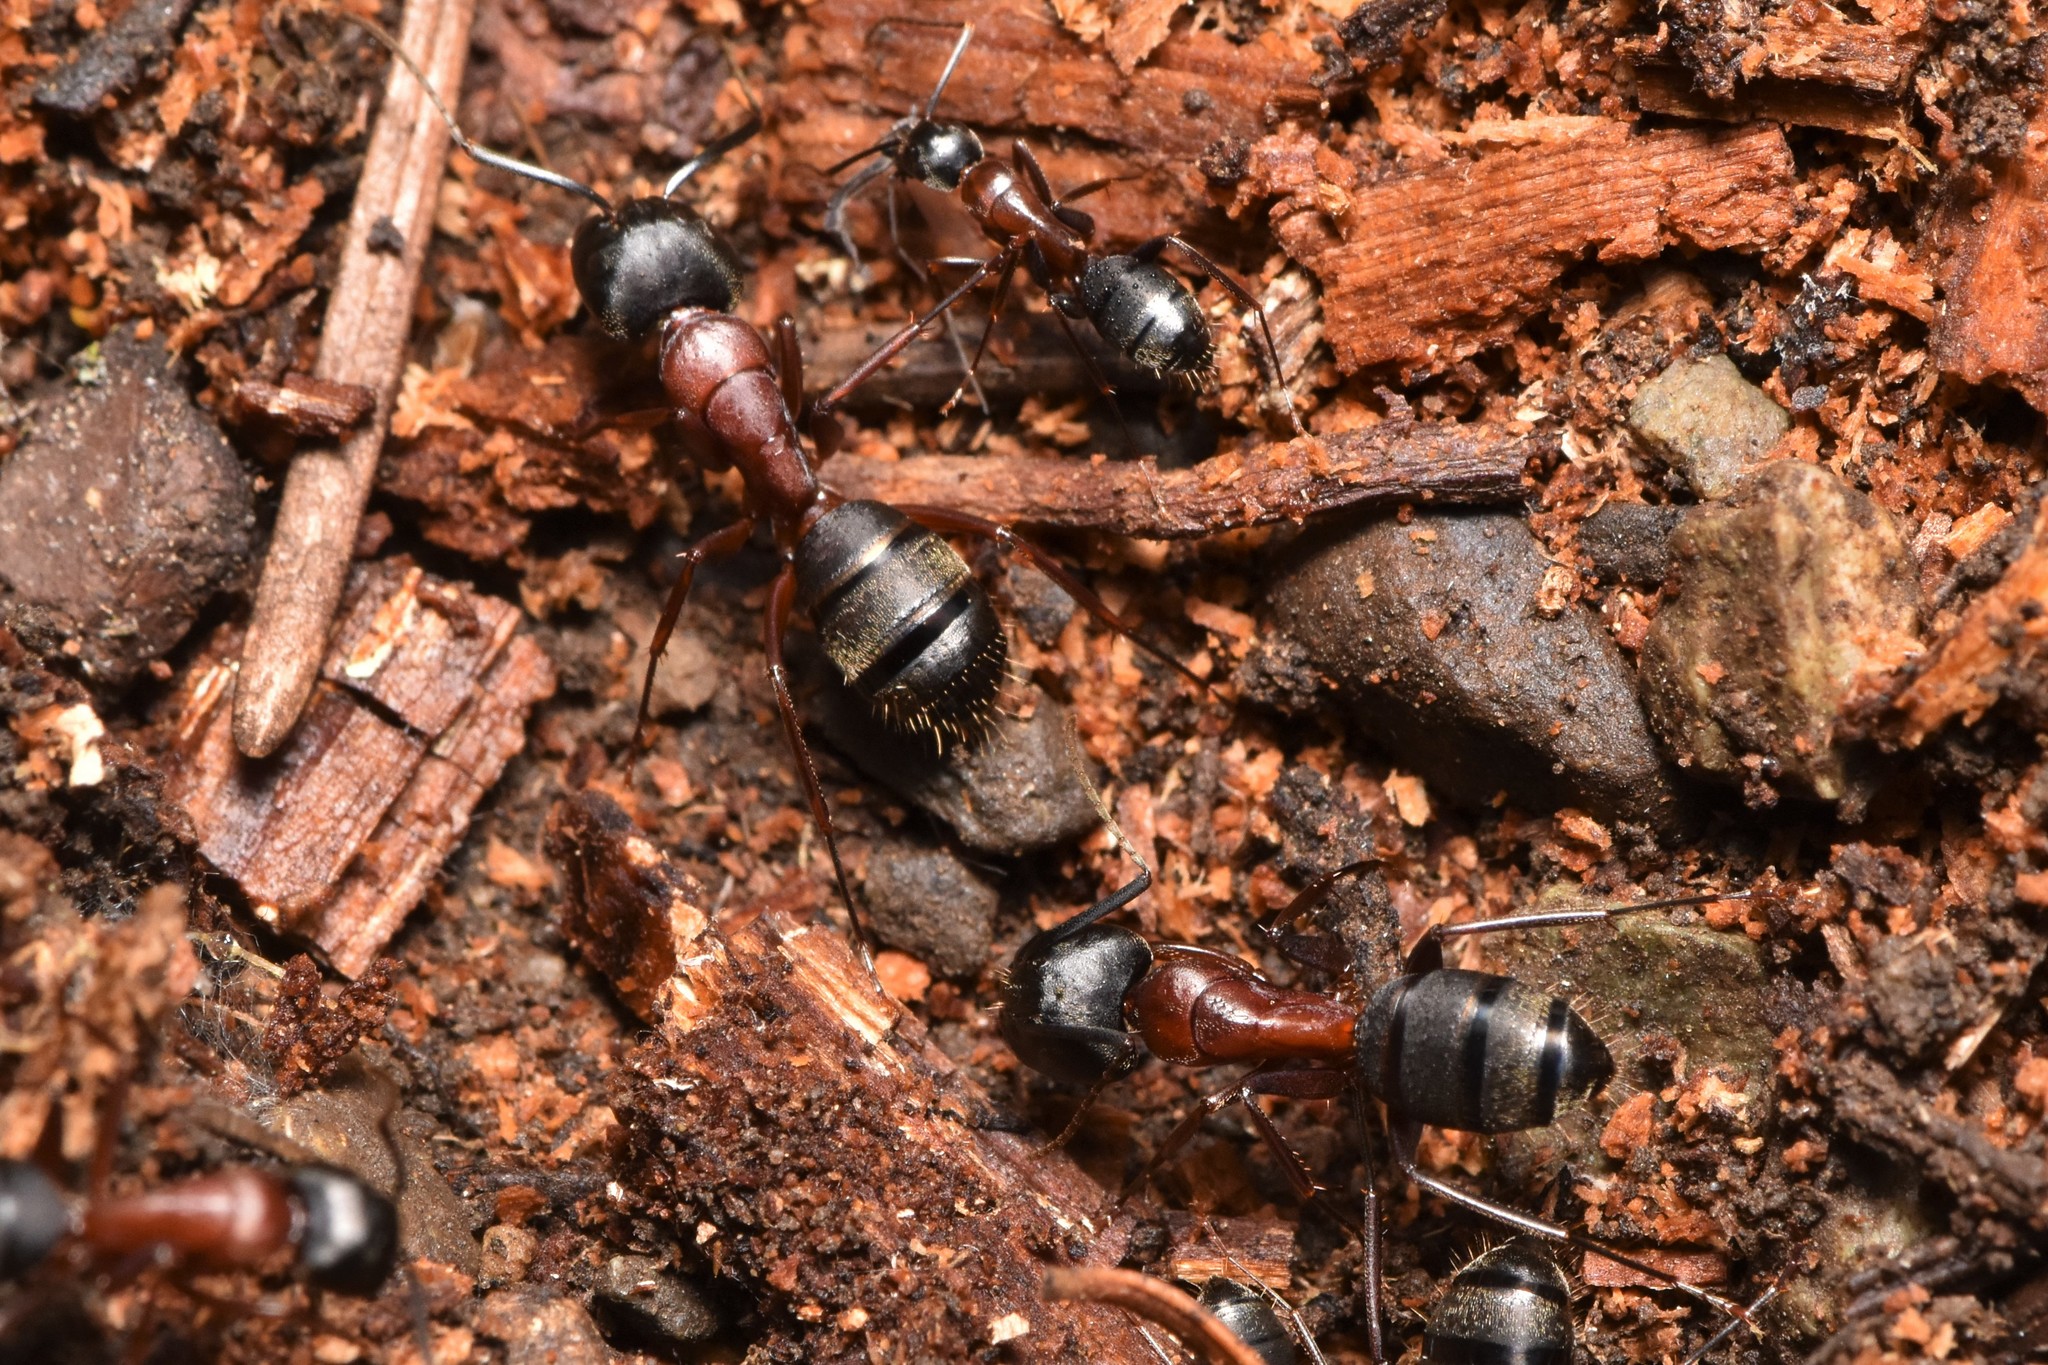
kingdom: Animalia
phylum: Arthropoda
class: Insecta
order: Hymenoptera
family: Formicidae
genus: Camponotus
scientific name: Camponotus vicinus
